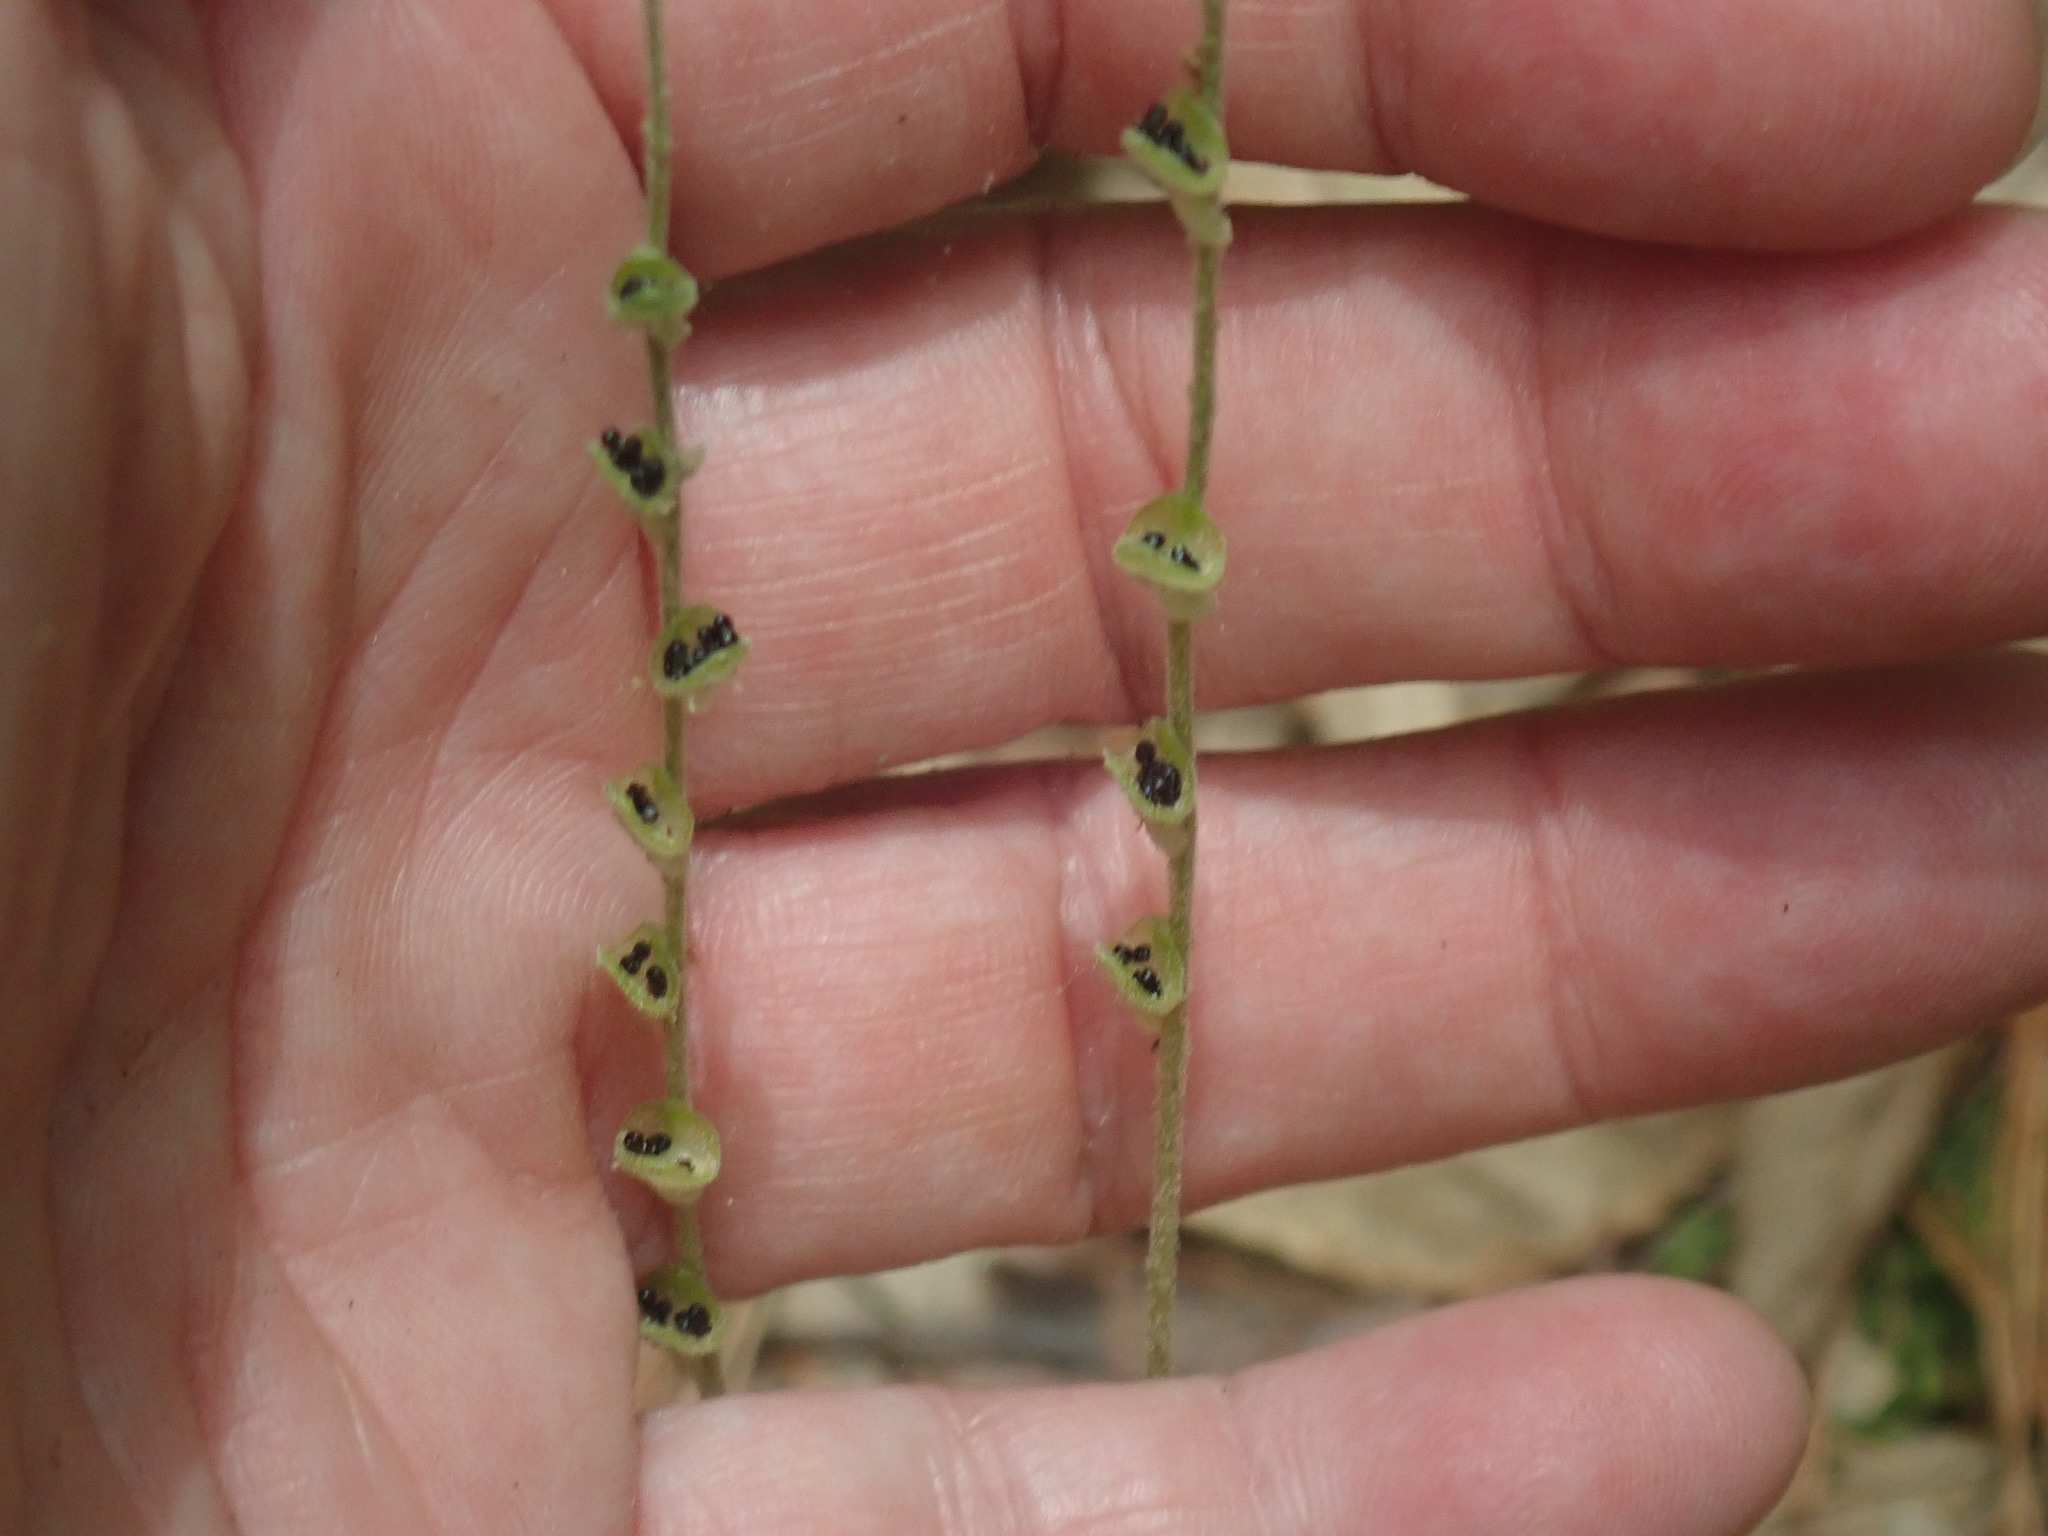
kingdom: Plantae
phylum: Tracheophyta
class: Magnoliopsida
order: Saxifragales
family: Saxifragaceae
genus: Mitella
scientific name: Mitella diphylla
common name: Coolwort
